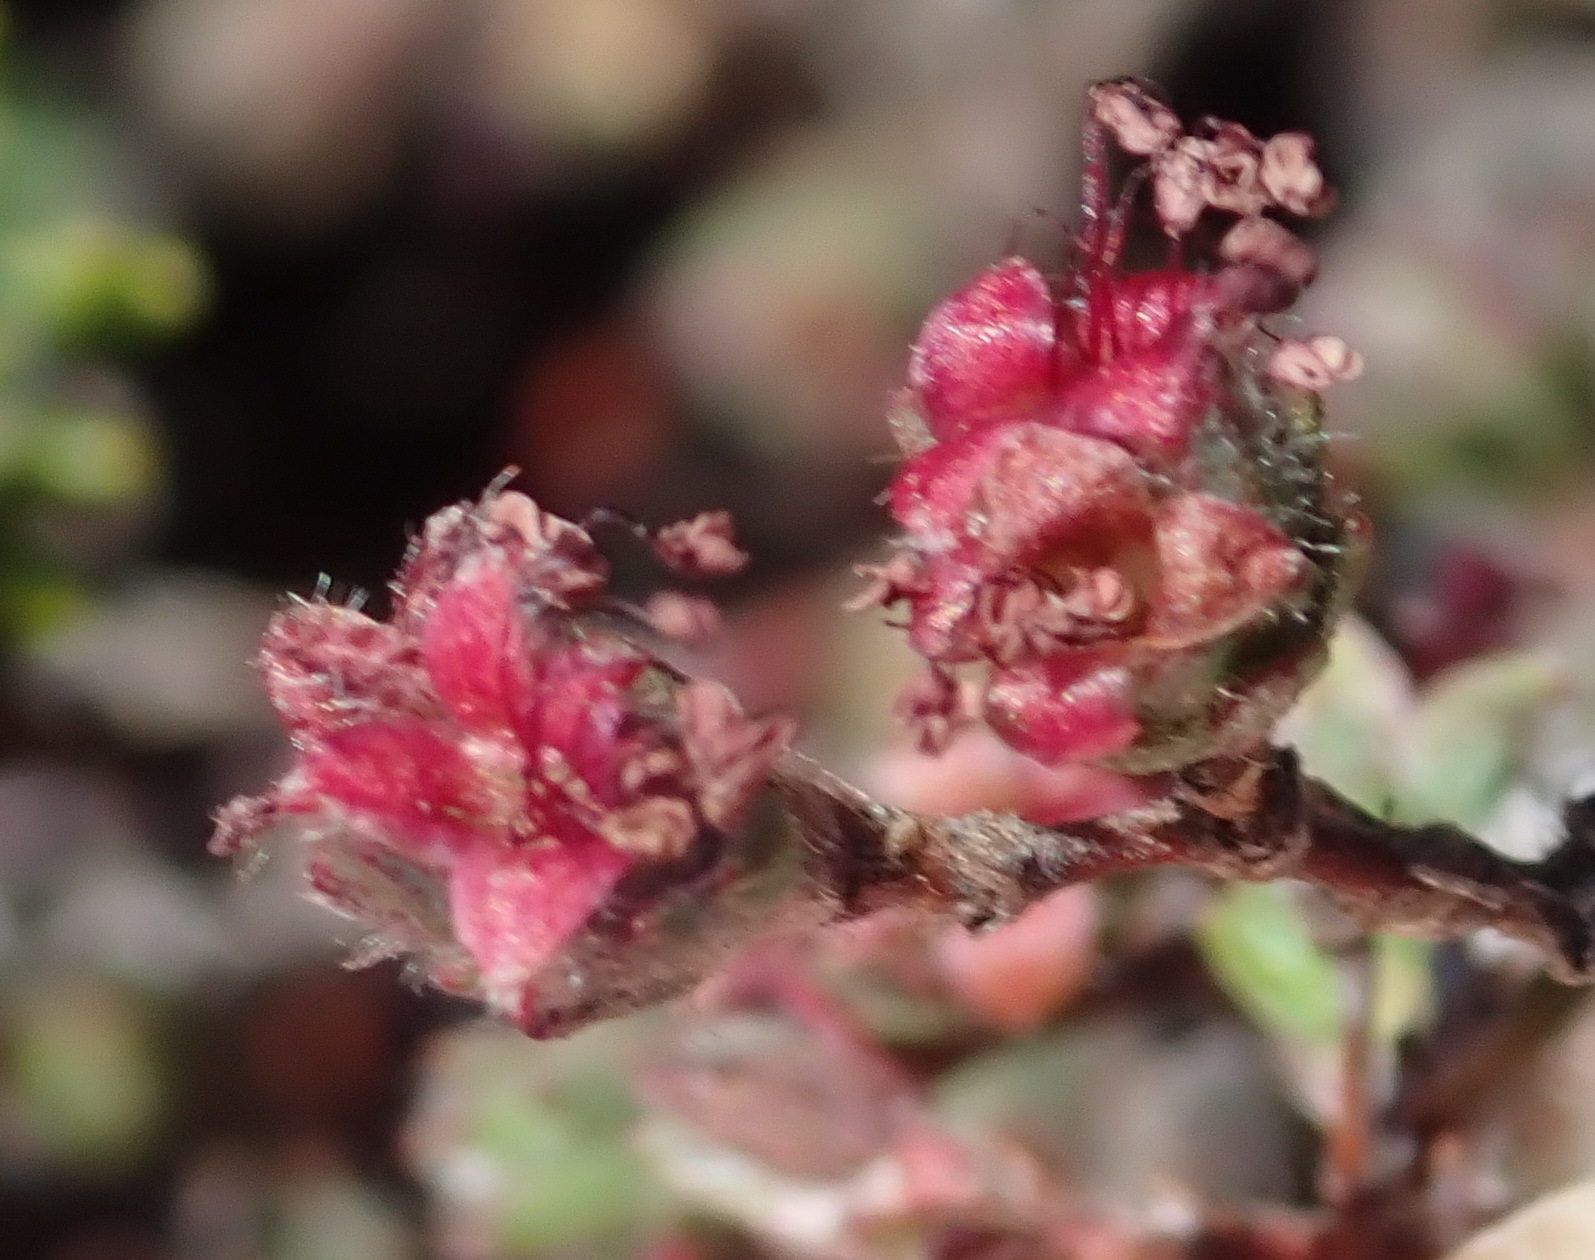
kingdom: Plantae
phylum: Tracheophyta
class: Magnoliopsida
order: Rosales
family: Rosaceae
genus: Cliffortia
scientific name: Cliffortia hantamensis
